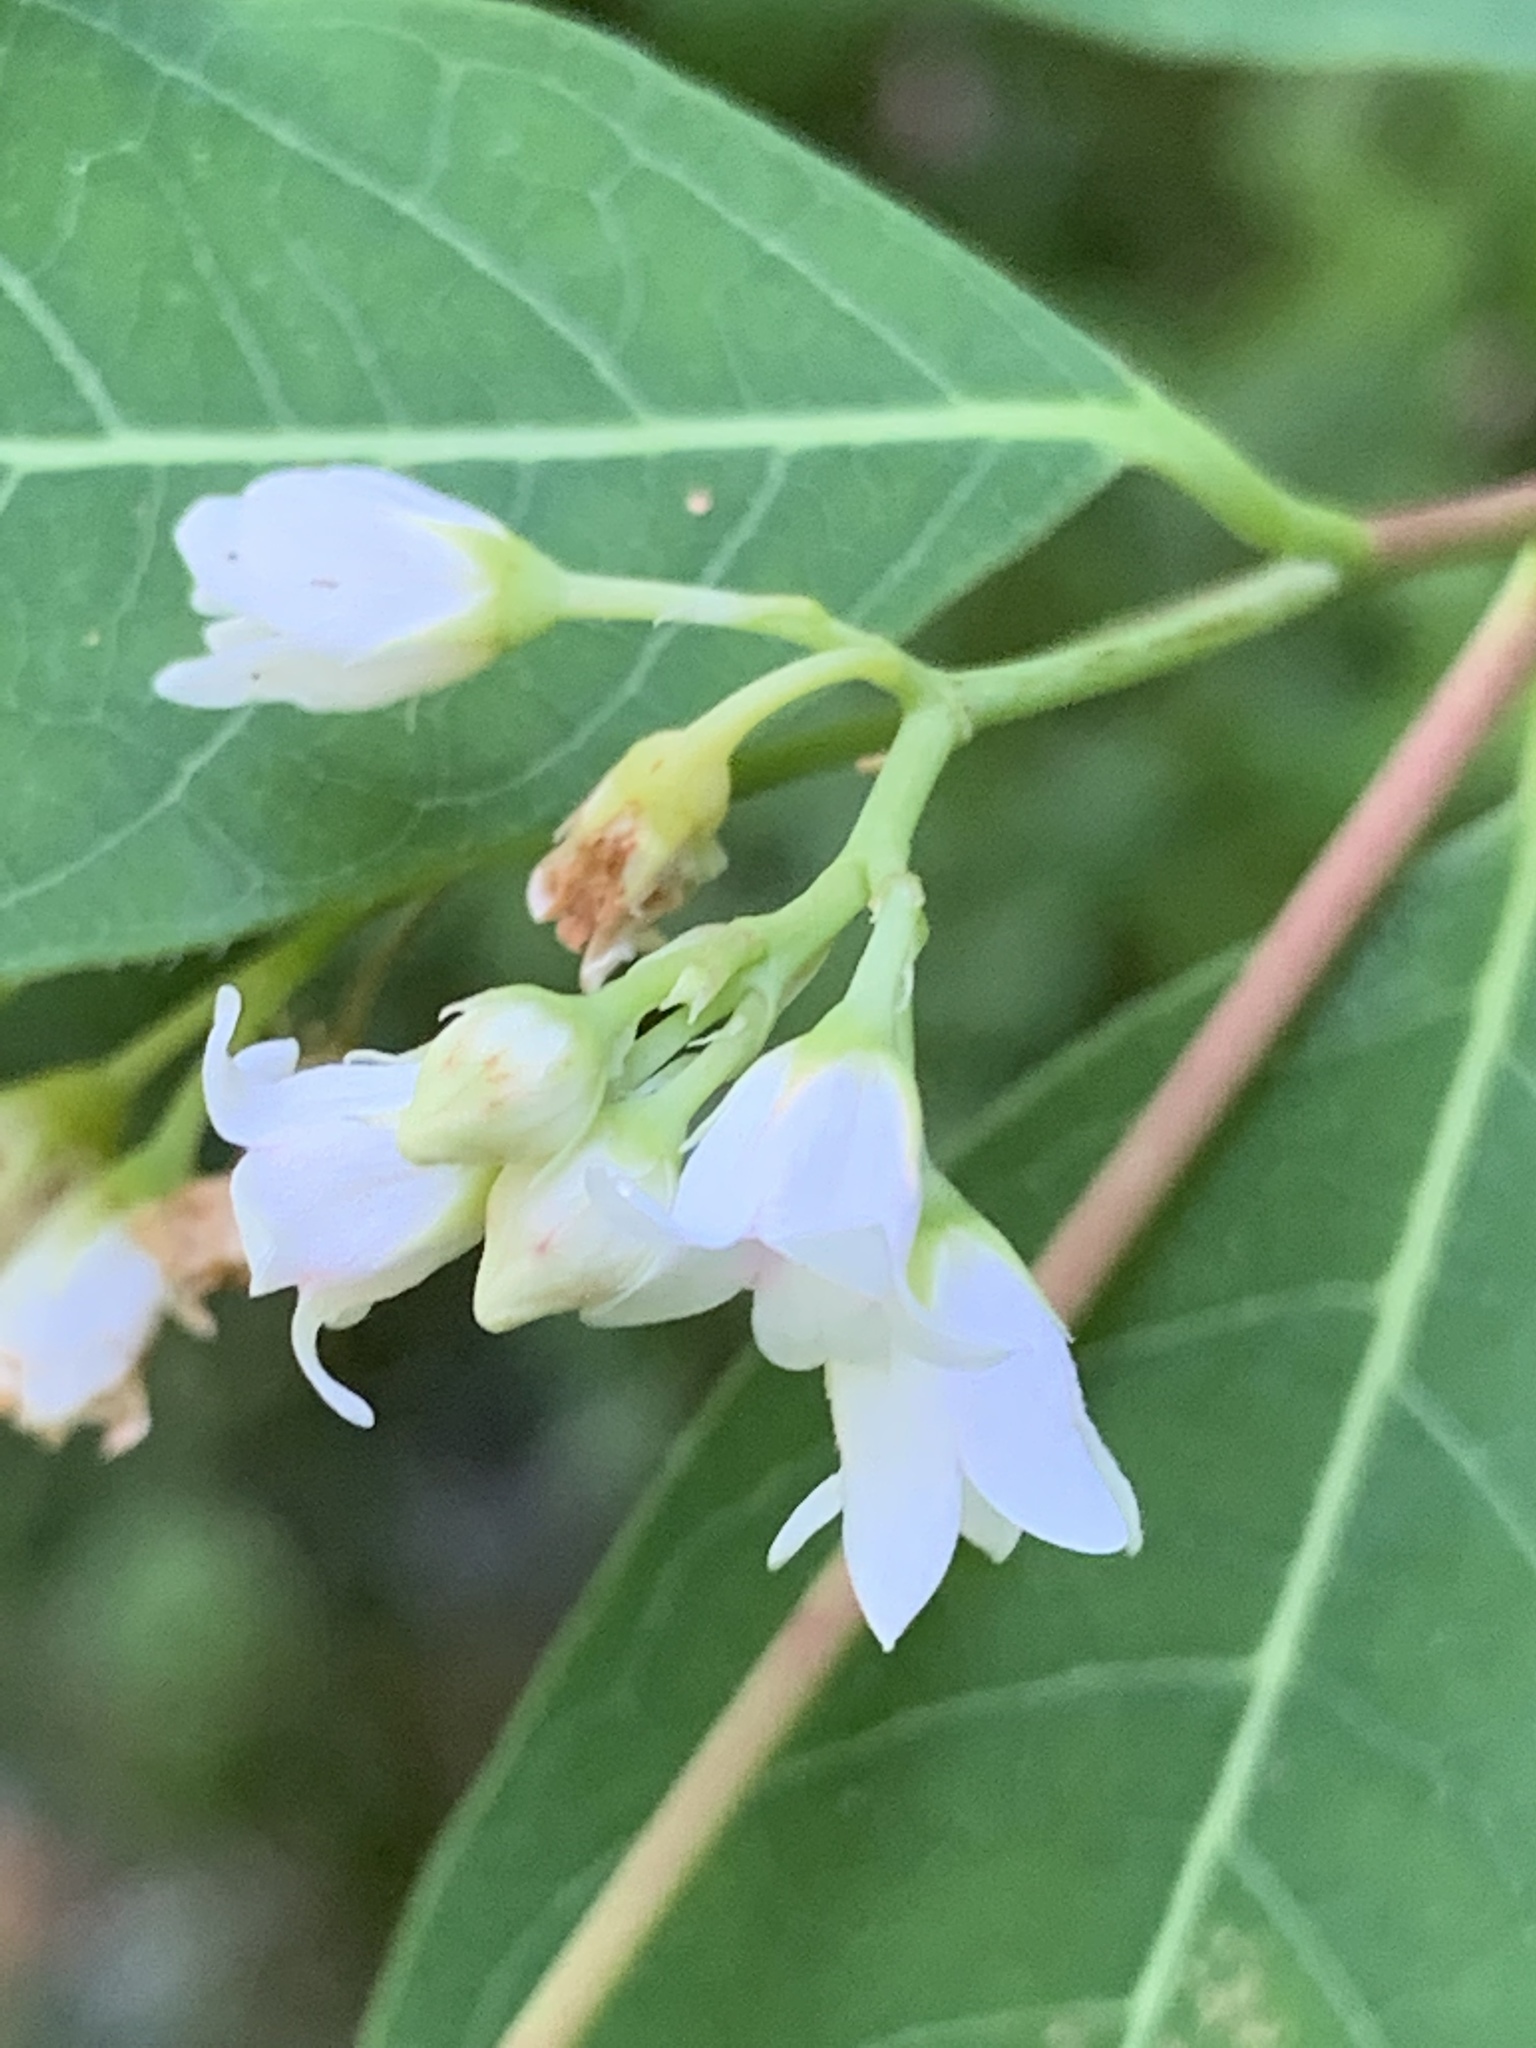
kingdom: Plantae
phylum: Tracheophyta
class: Magnoliopsida
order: Gentianales
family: Apocynaceae
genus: Apocynum
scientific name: Apocynum androsaemifolium
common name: Spreading dogbane
